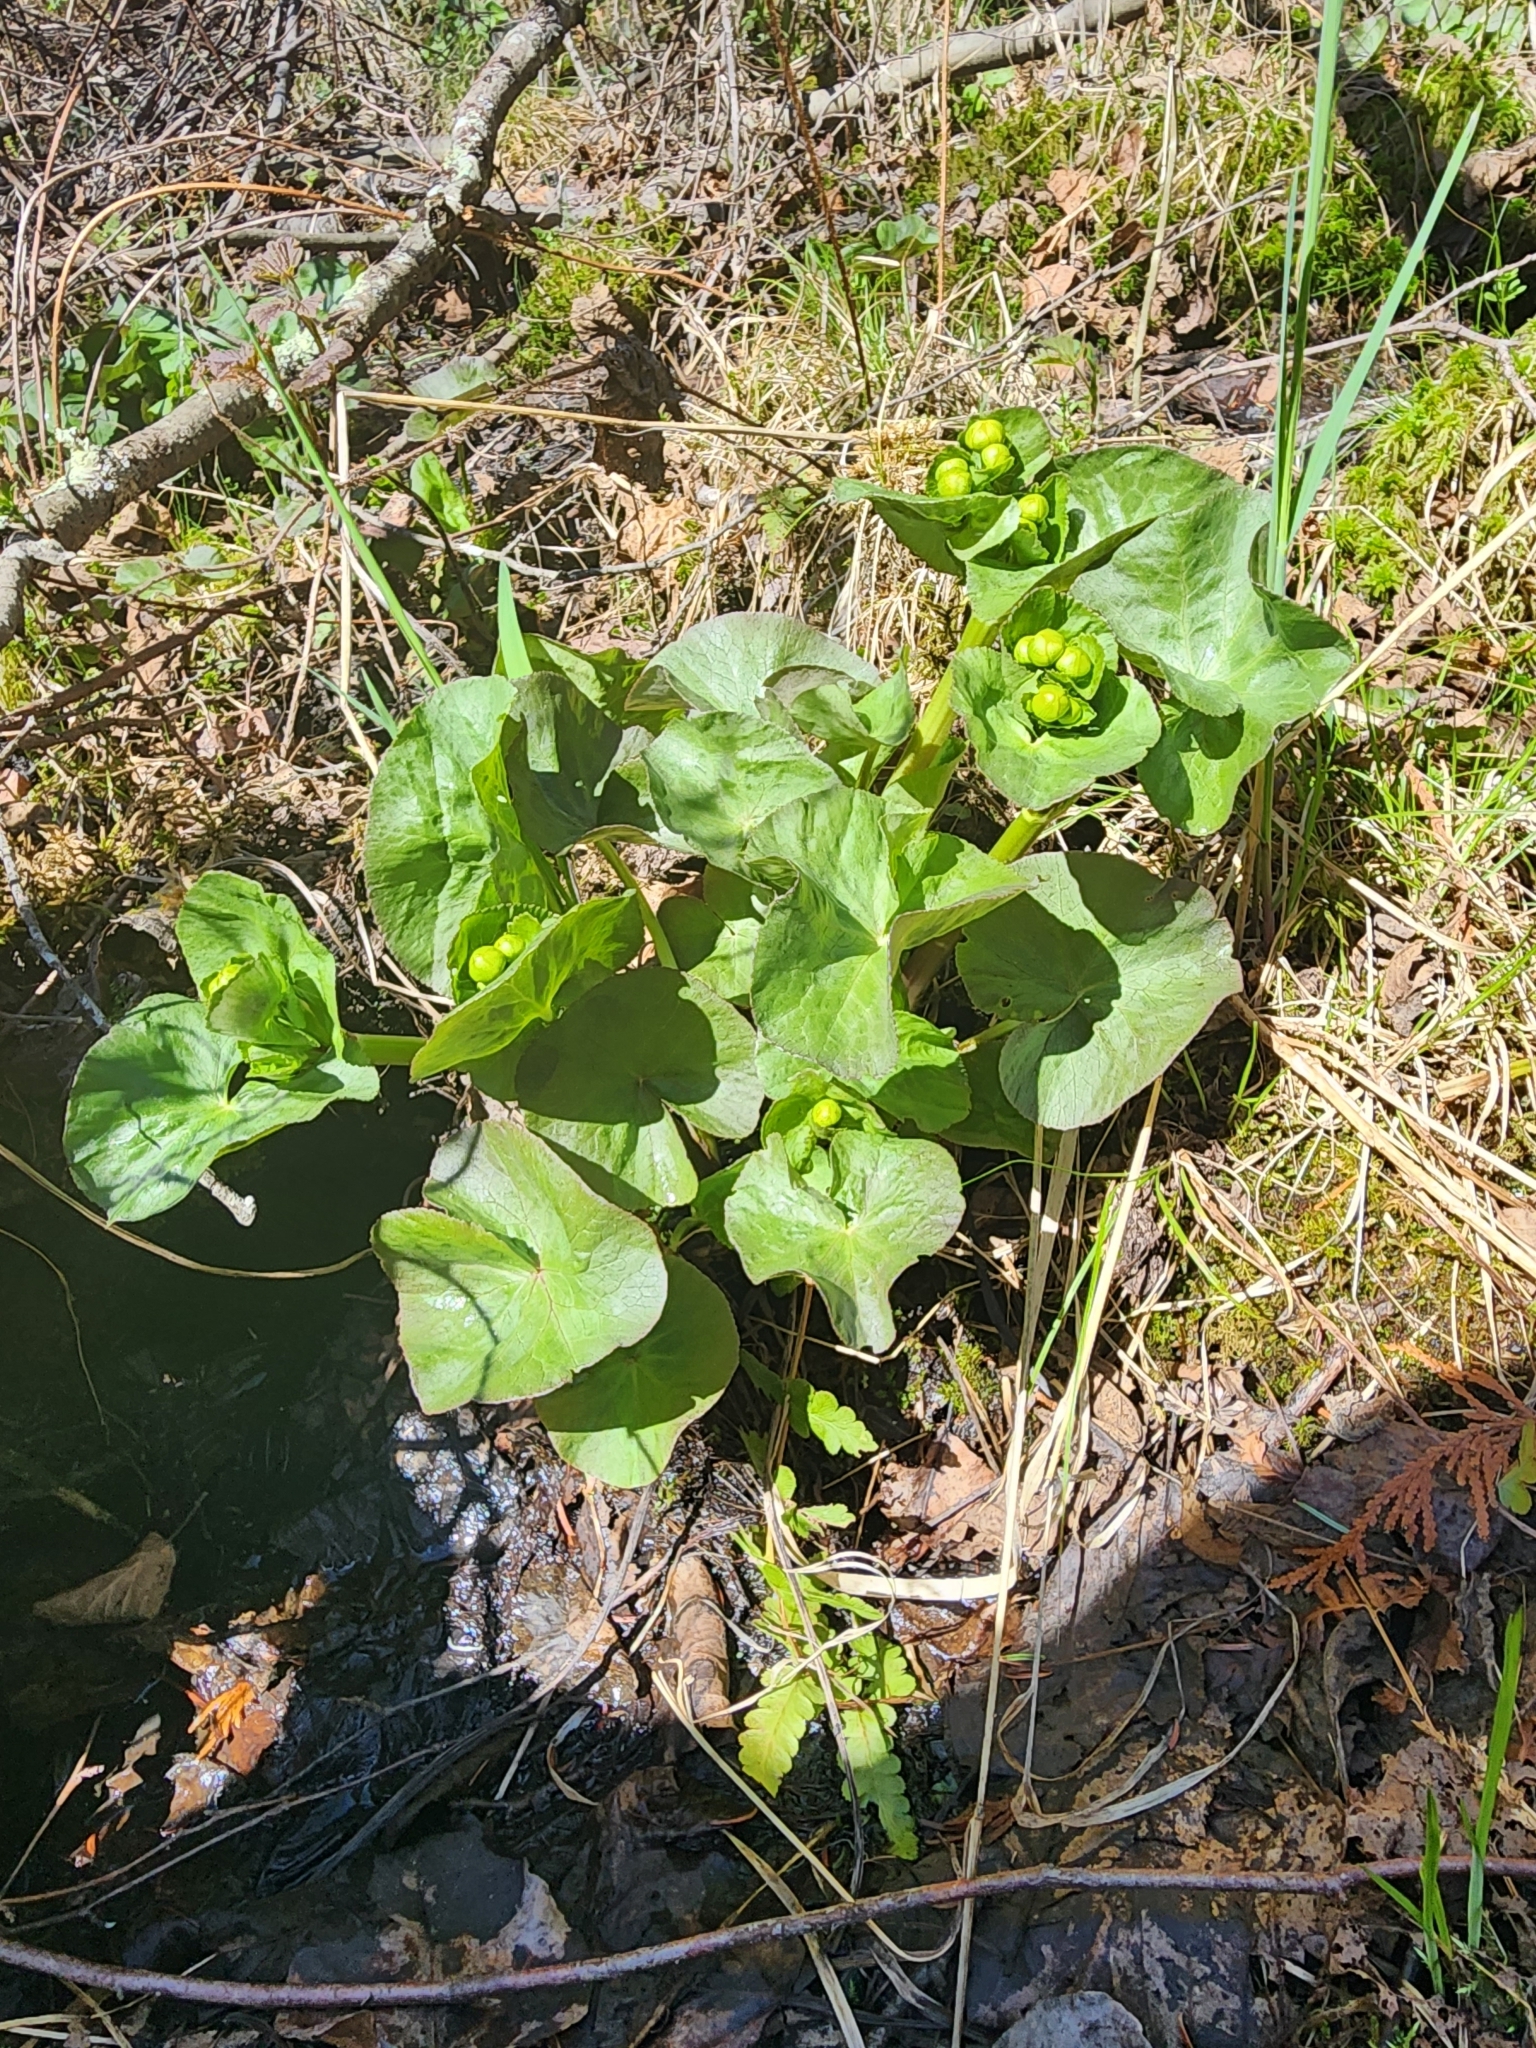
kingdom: Plantae
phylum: Tracheophyta
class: Magnoliopsida
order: Ranunculales
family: Ranunculaceae
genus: Caltha
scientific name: Caltha palustris
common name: Marsh marigold
